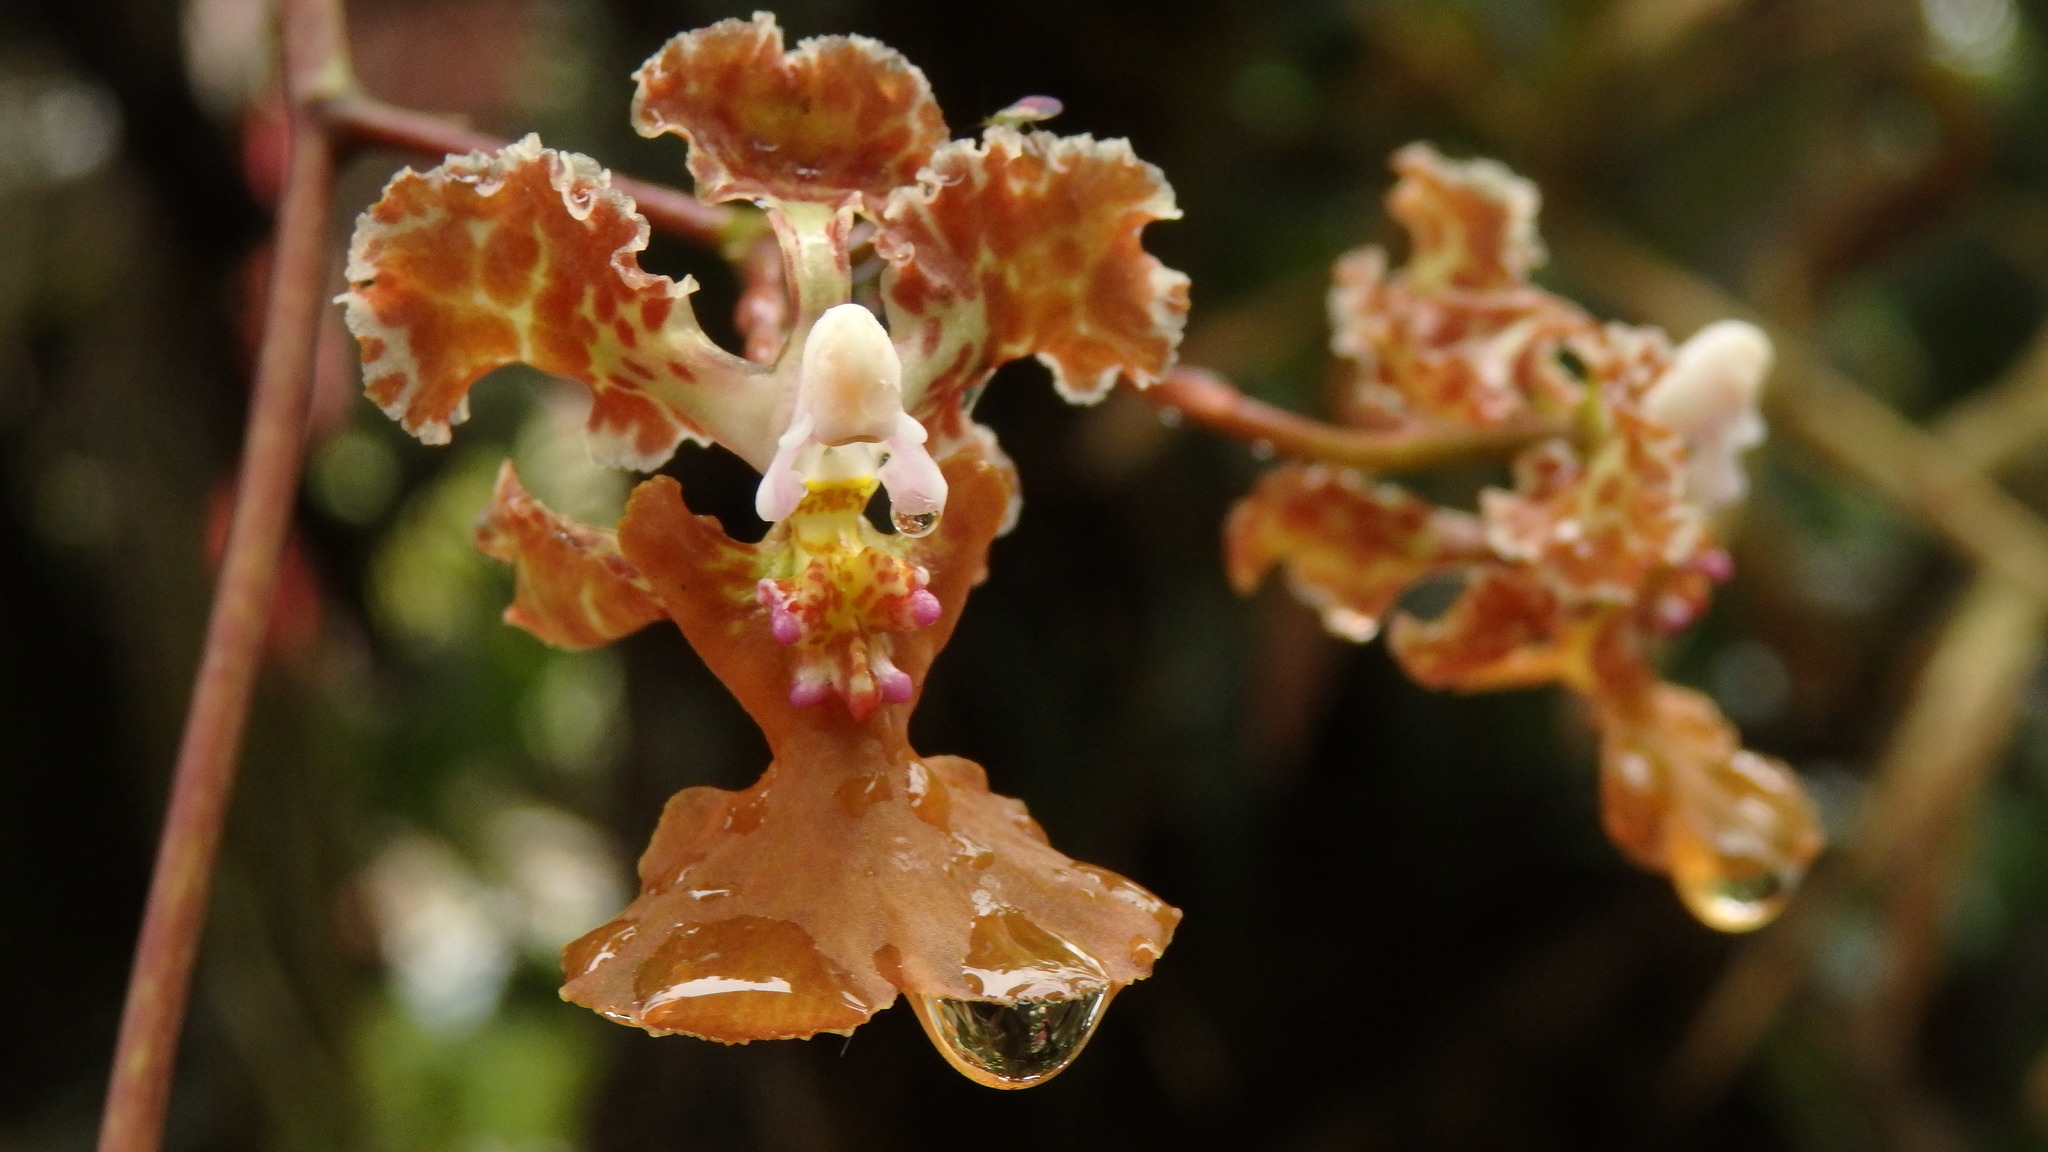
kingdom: Plantae
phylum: Tracheophyta
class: Liliopsida
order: Asparagales
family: Orchidaceae
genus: Trichocentrum
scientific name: Trichocentrum luridum
